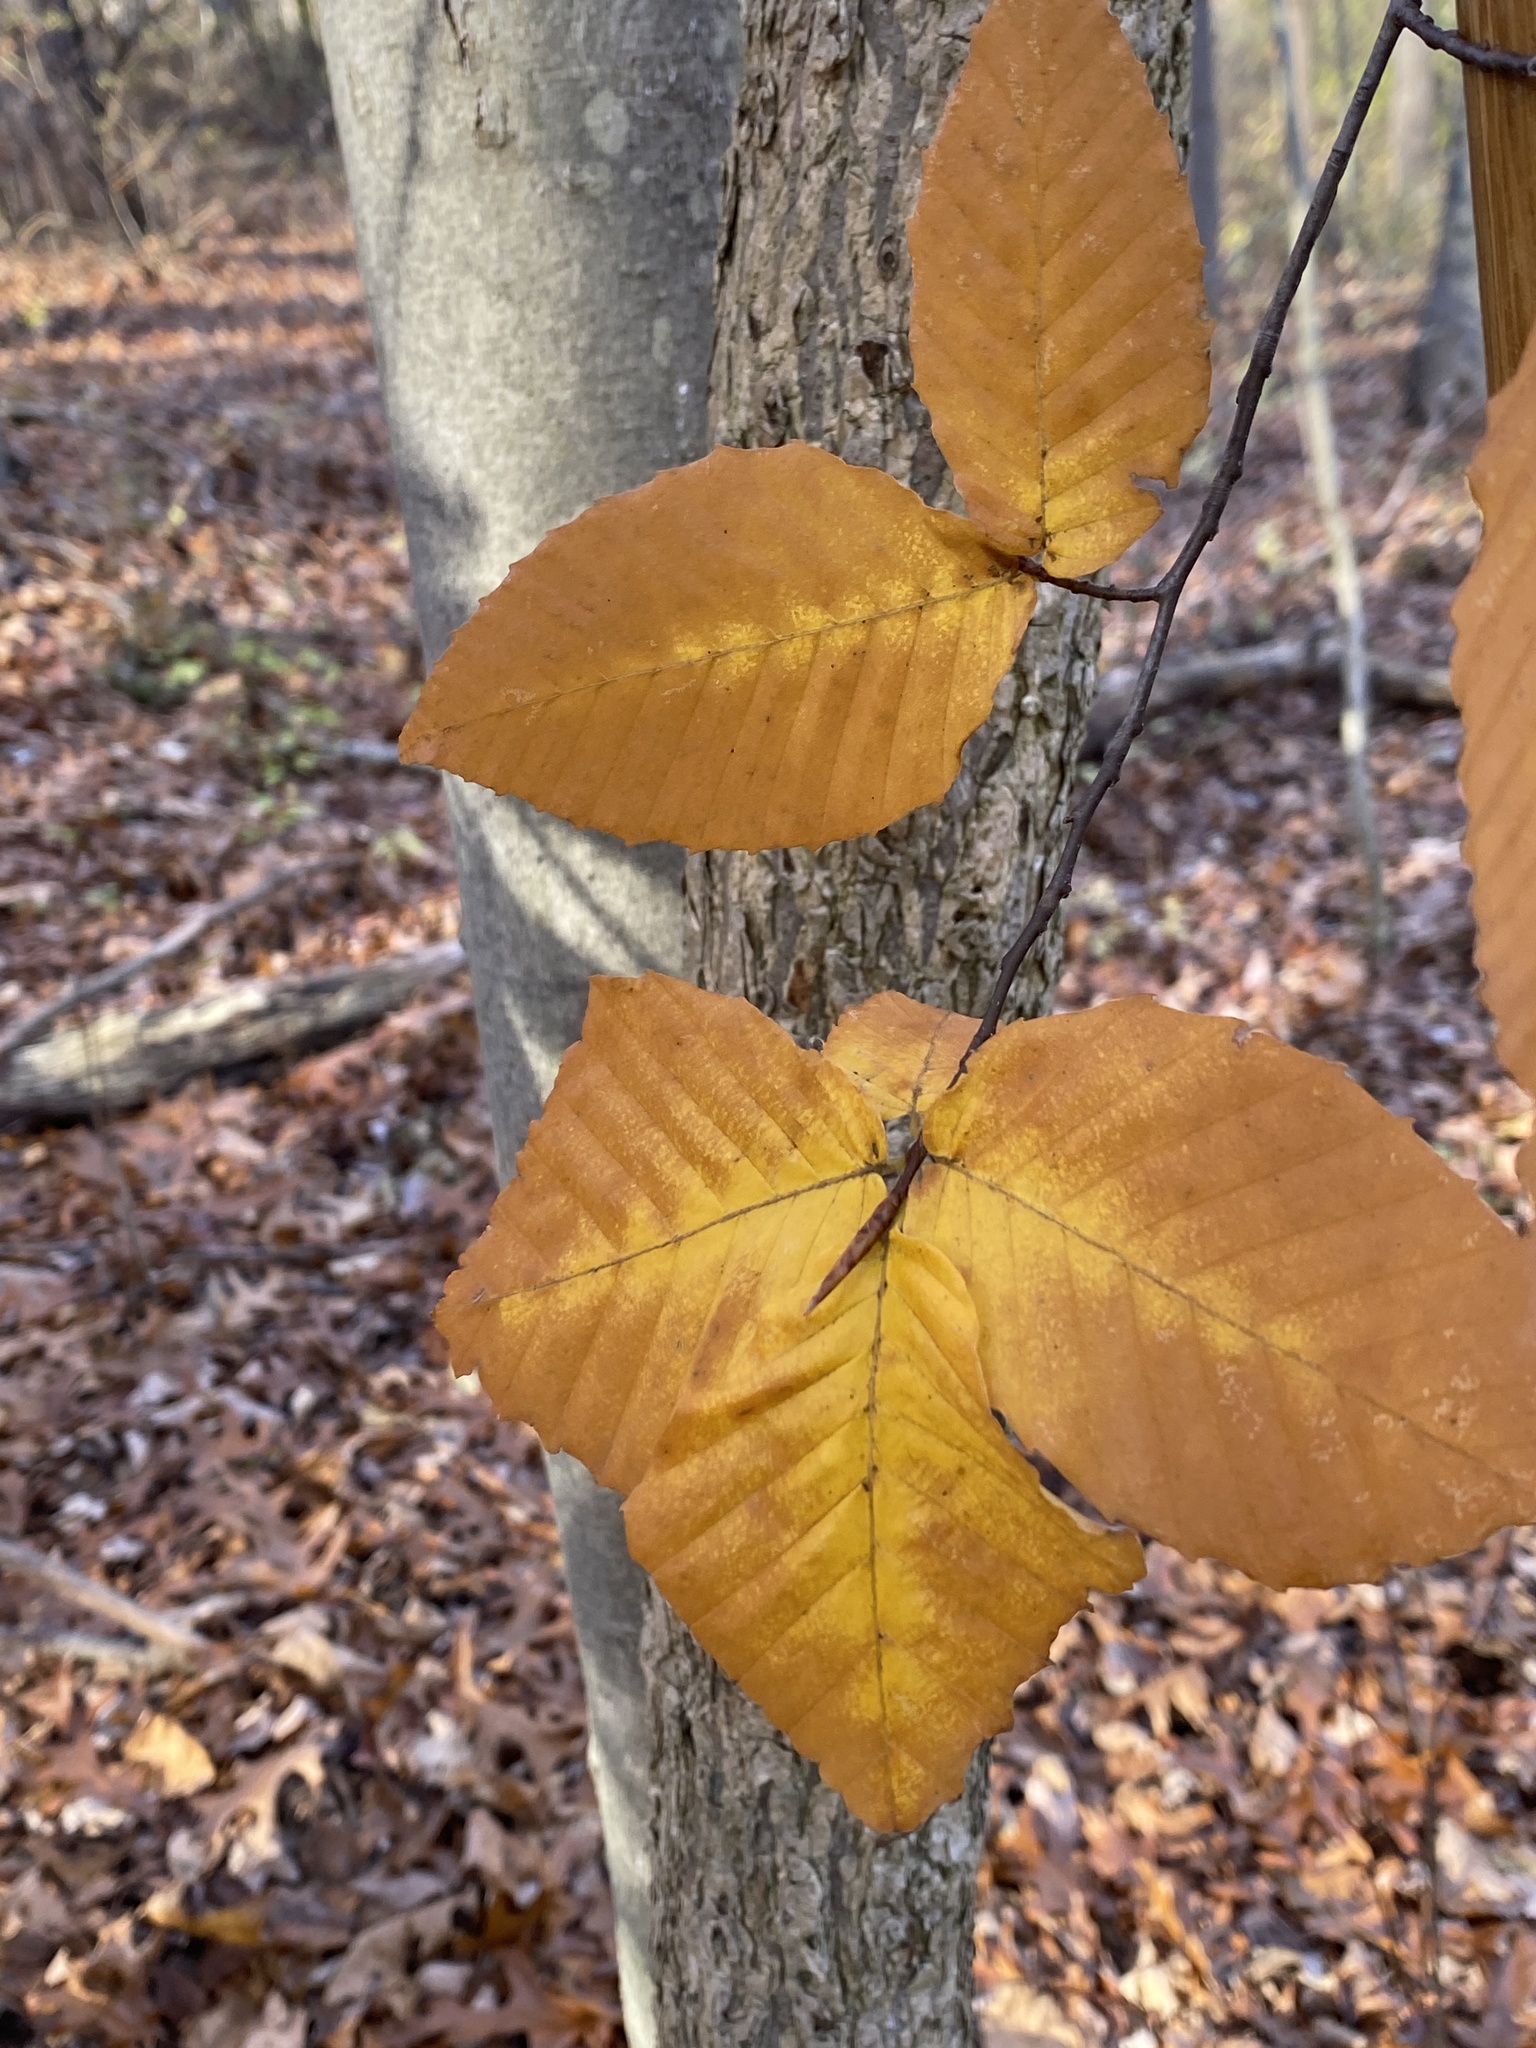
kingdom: Plantae
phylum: Tracheophyta
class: Magnoliopsida
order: Fagales
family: Fagaceae
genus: Fagus
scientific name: Fagus grandifolia
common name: American beech
